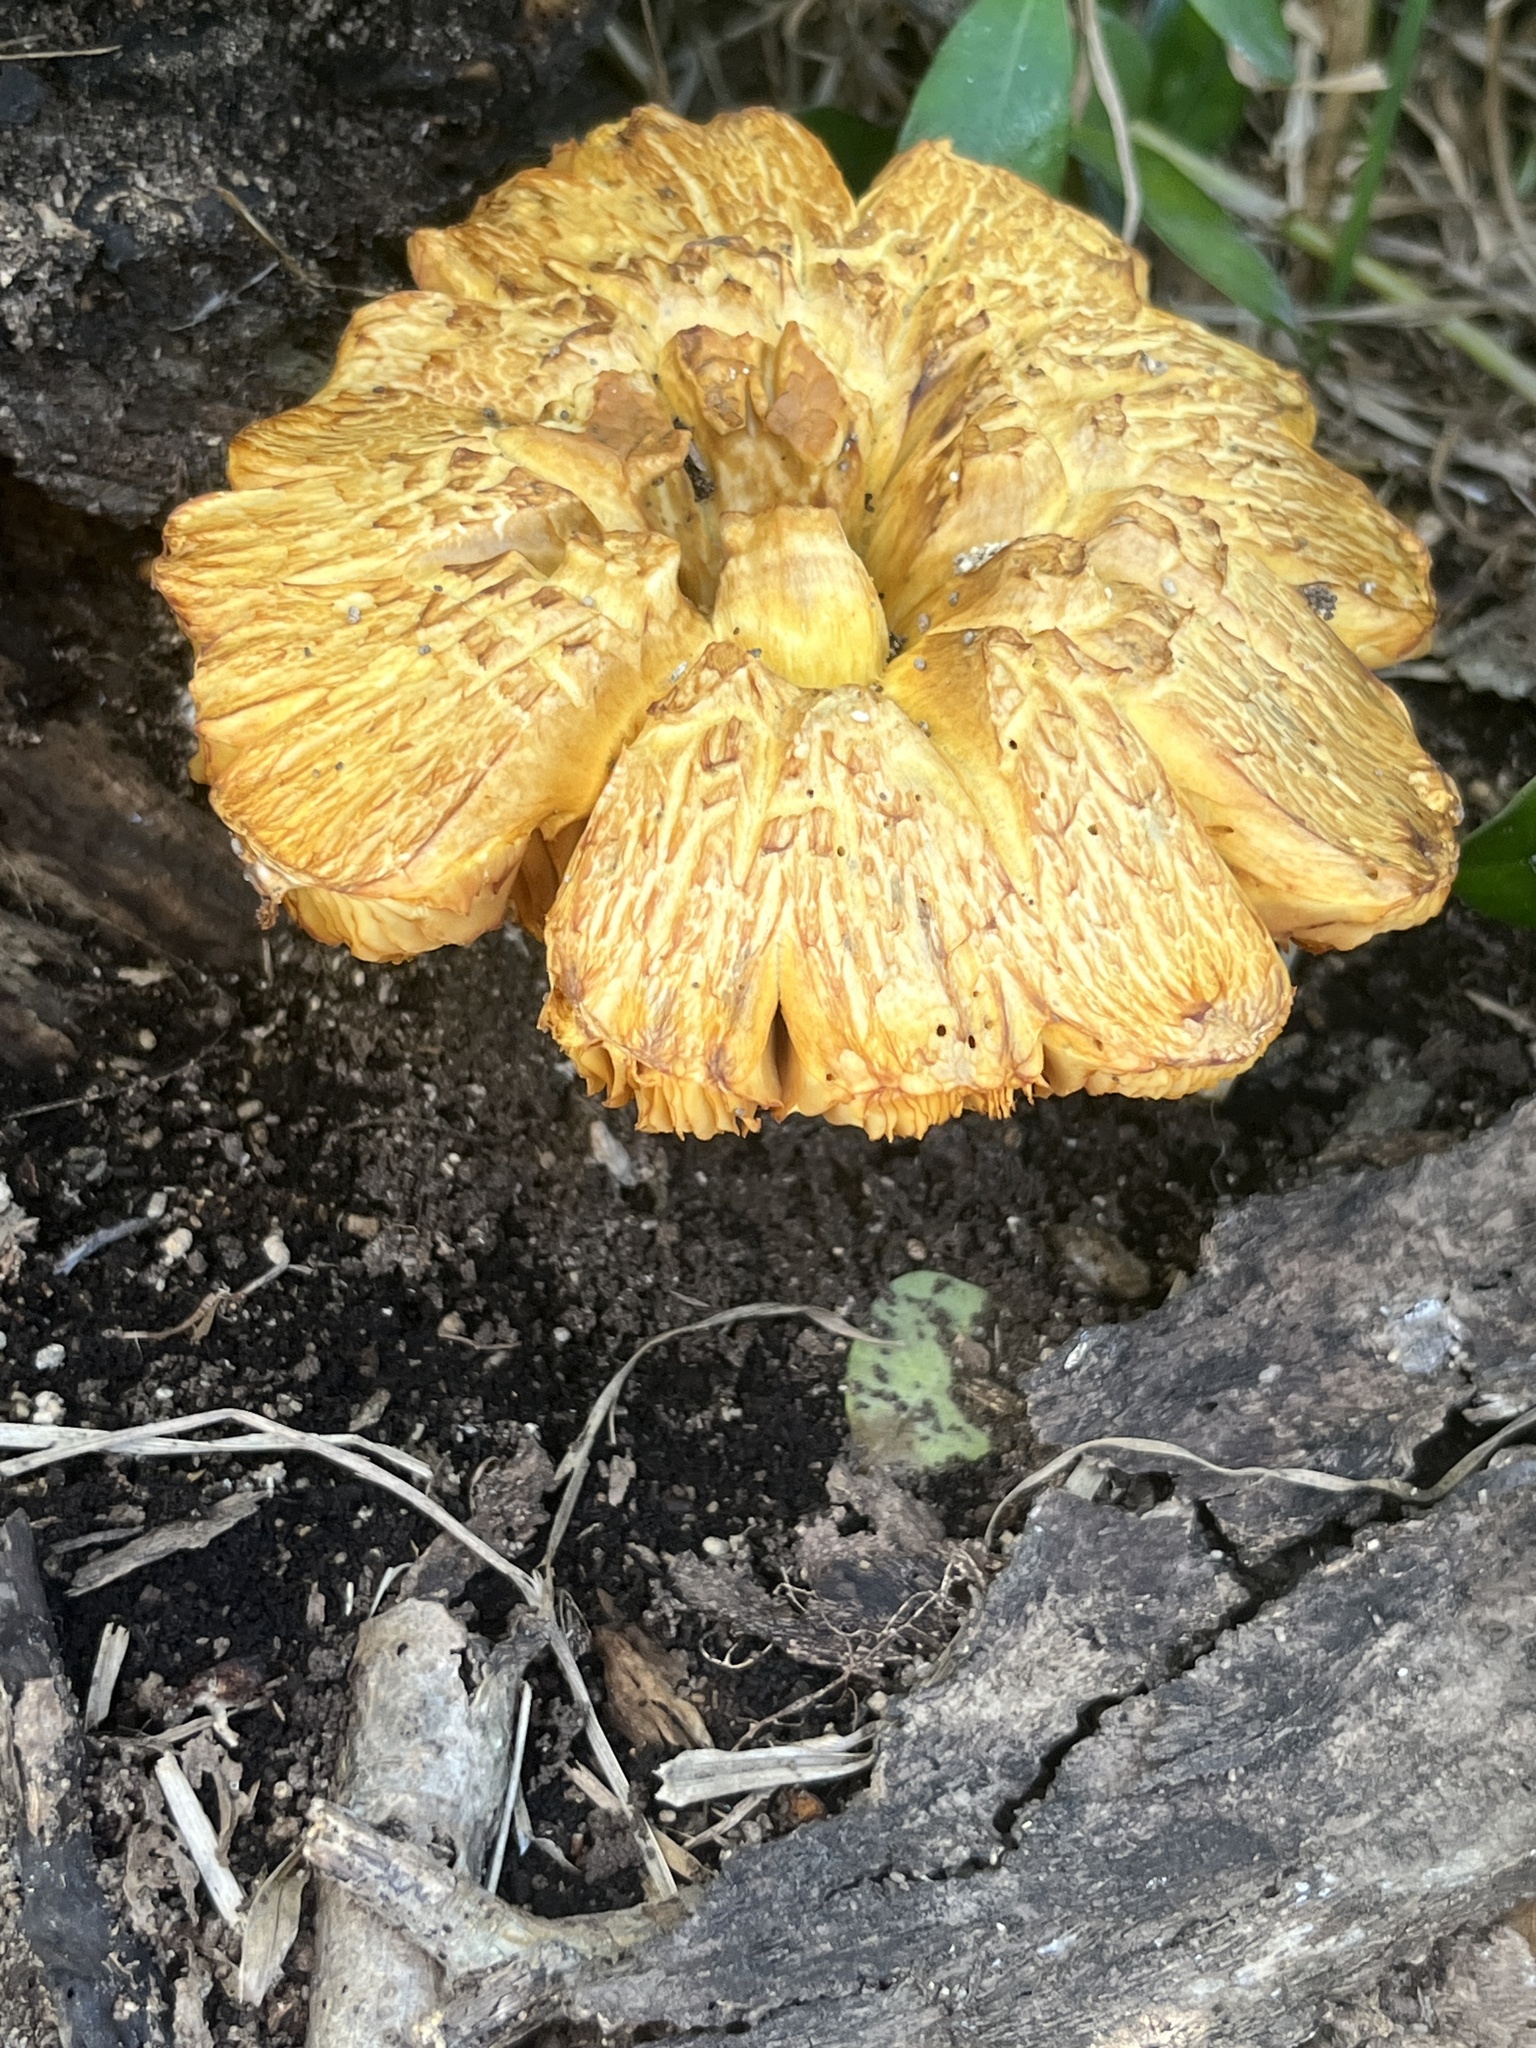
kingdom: Fungi
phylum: Basidiomycota
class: Agaricomycetes
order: Agaricales
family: Hymenogastraceae
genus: Gymnopilus
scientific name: Gymnopilus junonius
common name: Spectacular rustgill
